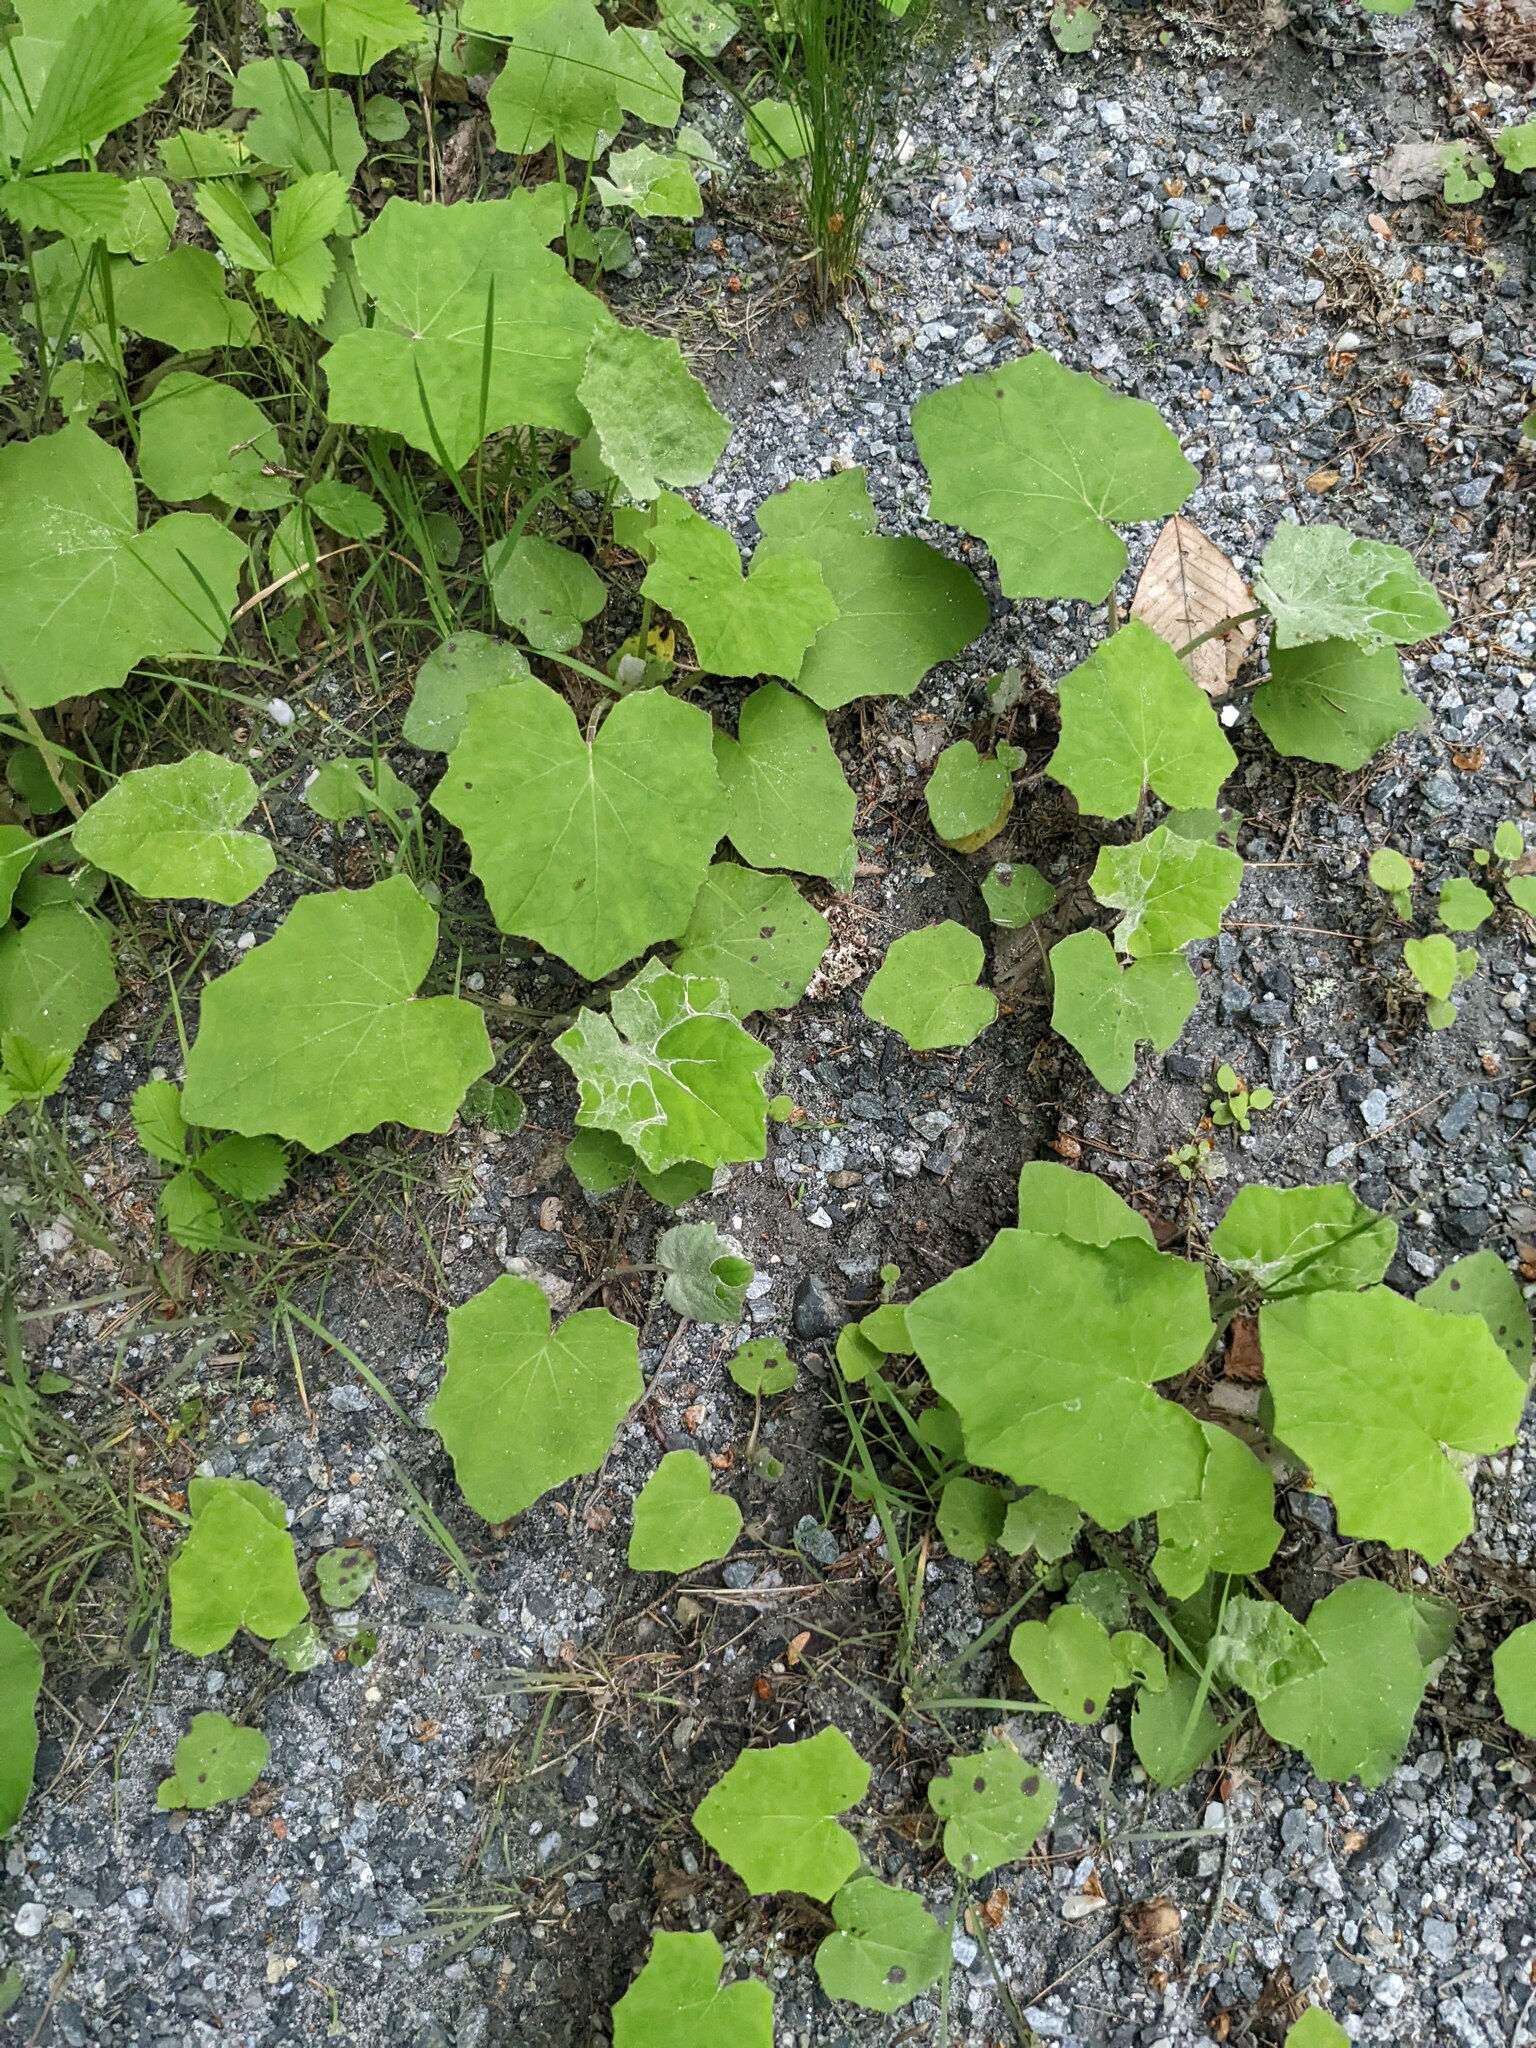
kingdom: Plantae
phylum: Tracheophyta
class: Magnoliopsida
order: Asterales
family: Asteraceae
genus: Tussilago
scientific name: Tussilago farfara
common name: Coltsfoot
